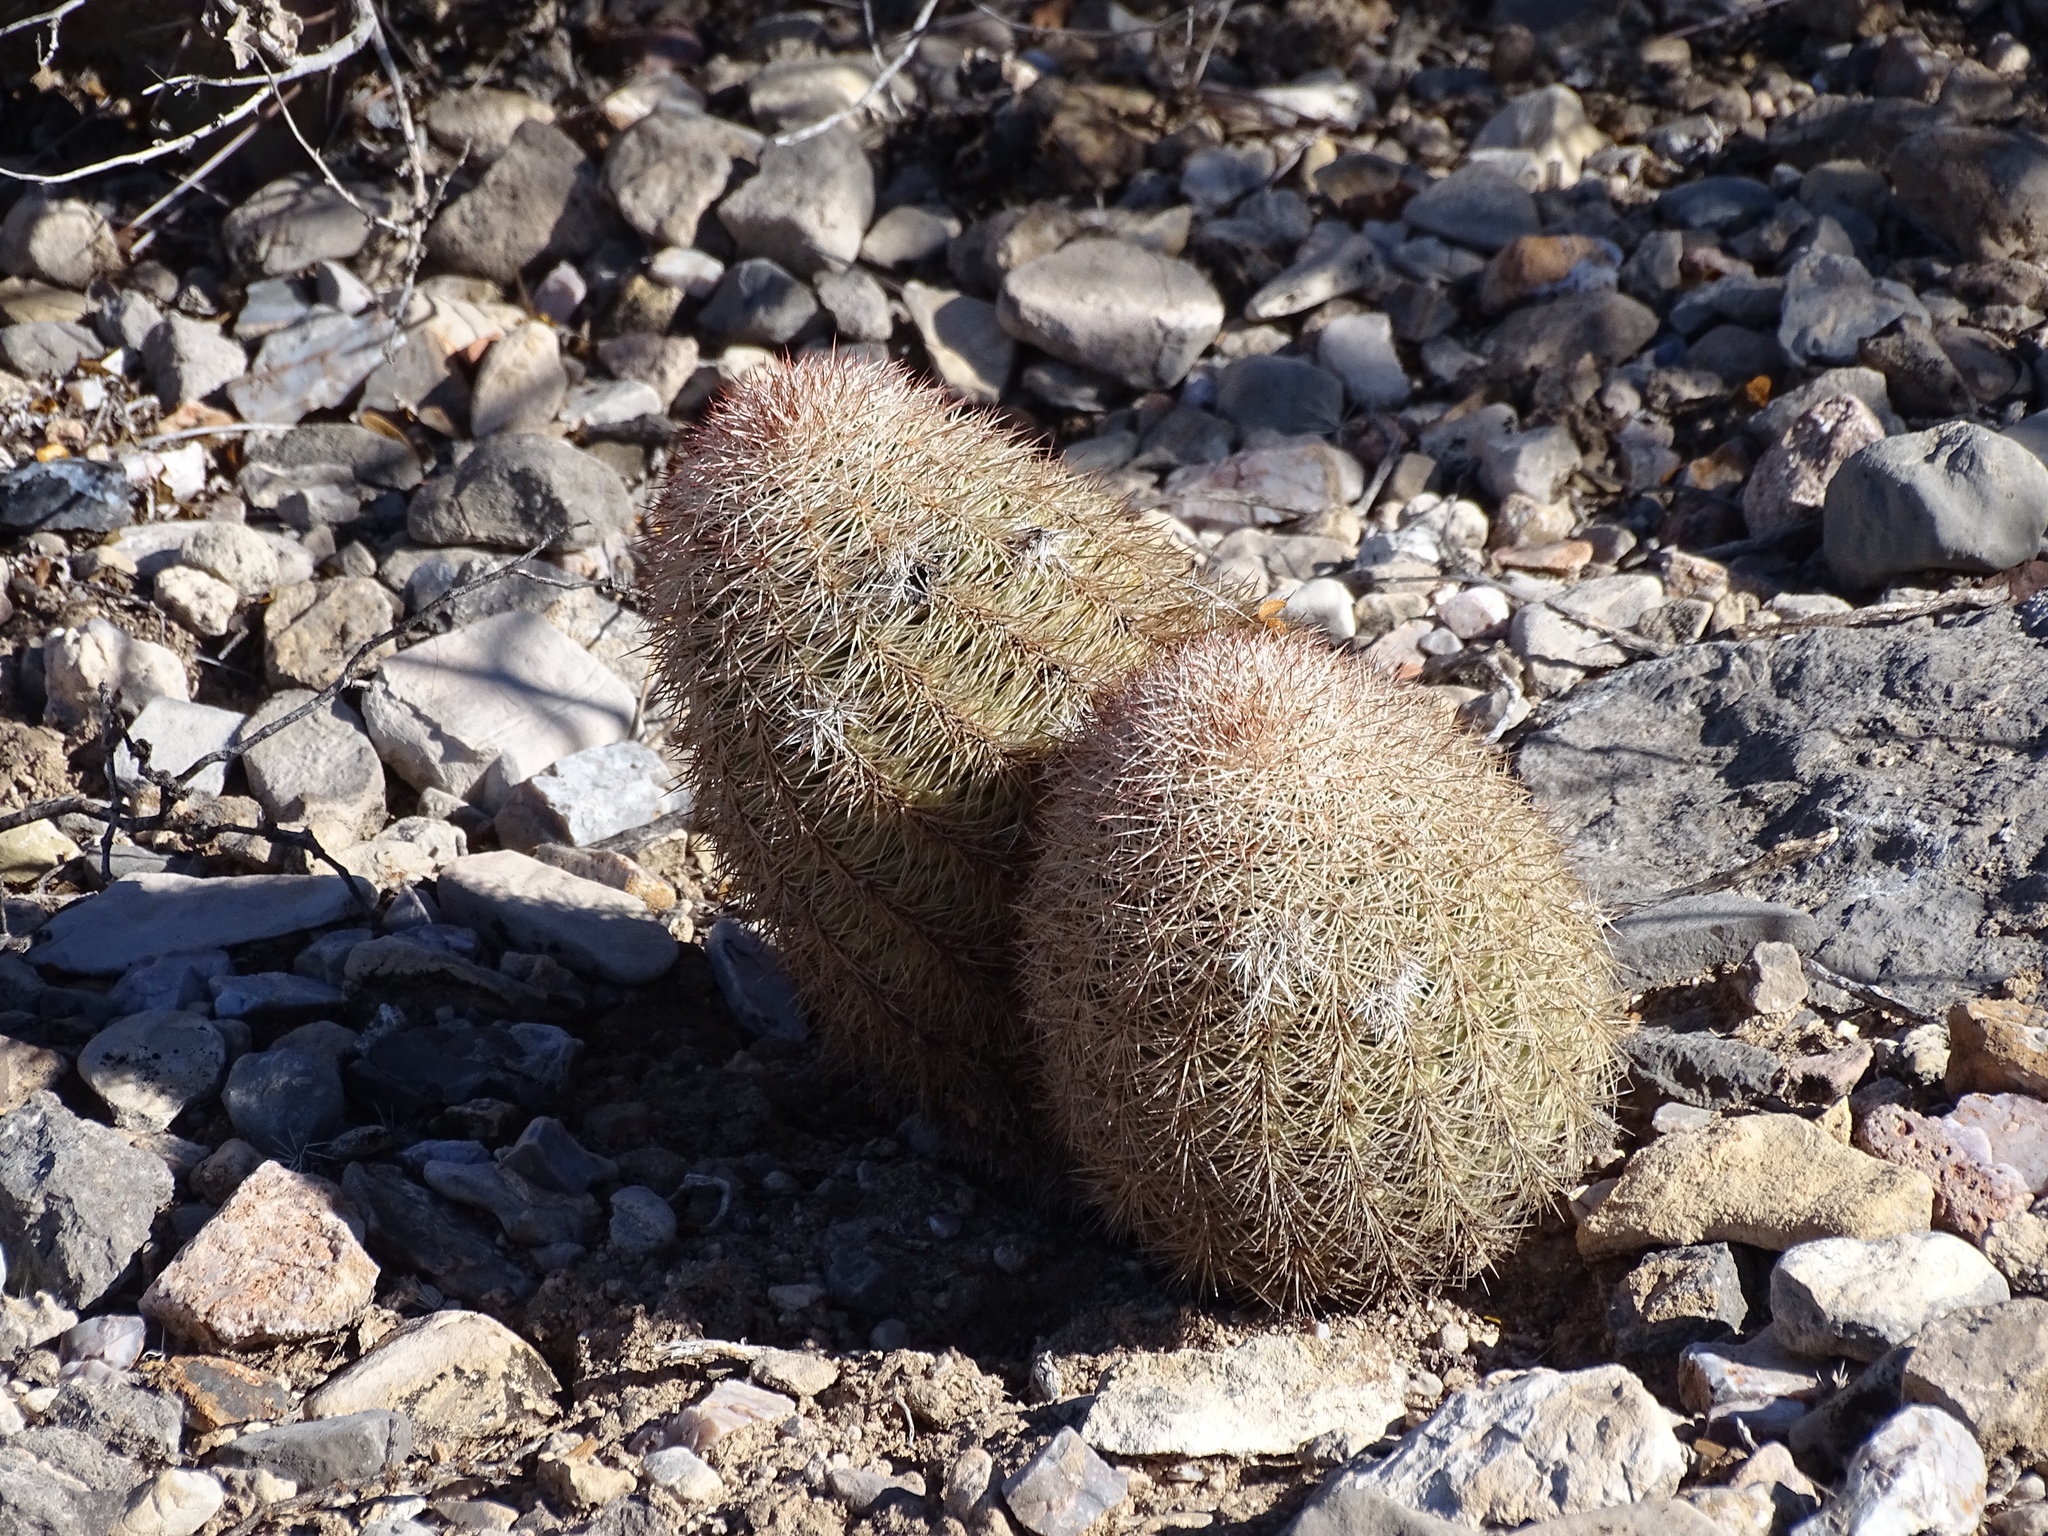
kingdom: Plantae
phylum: Tracheophyta
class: Magnoliopsida
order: Caryophyllales
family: Cactaceae
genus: Echinocereus
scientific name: Echinocereus dasyacanthus
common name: Spiny hedgehog cactus
